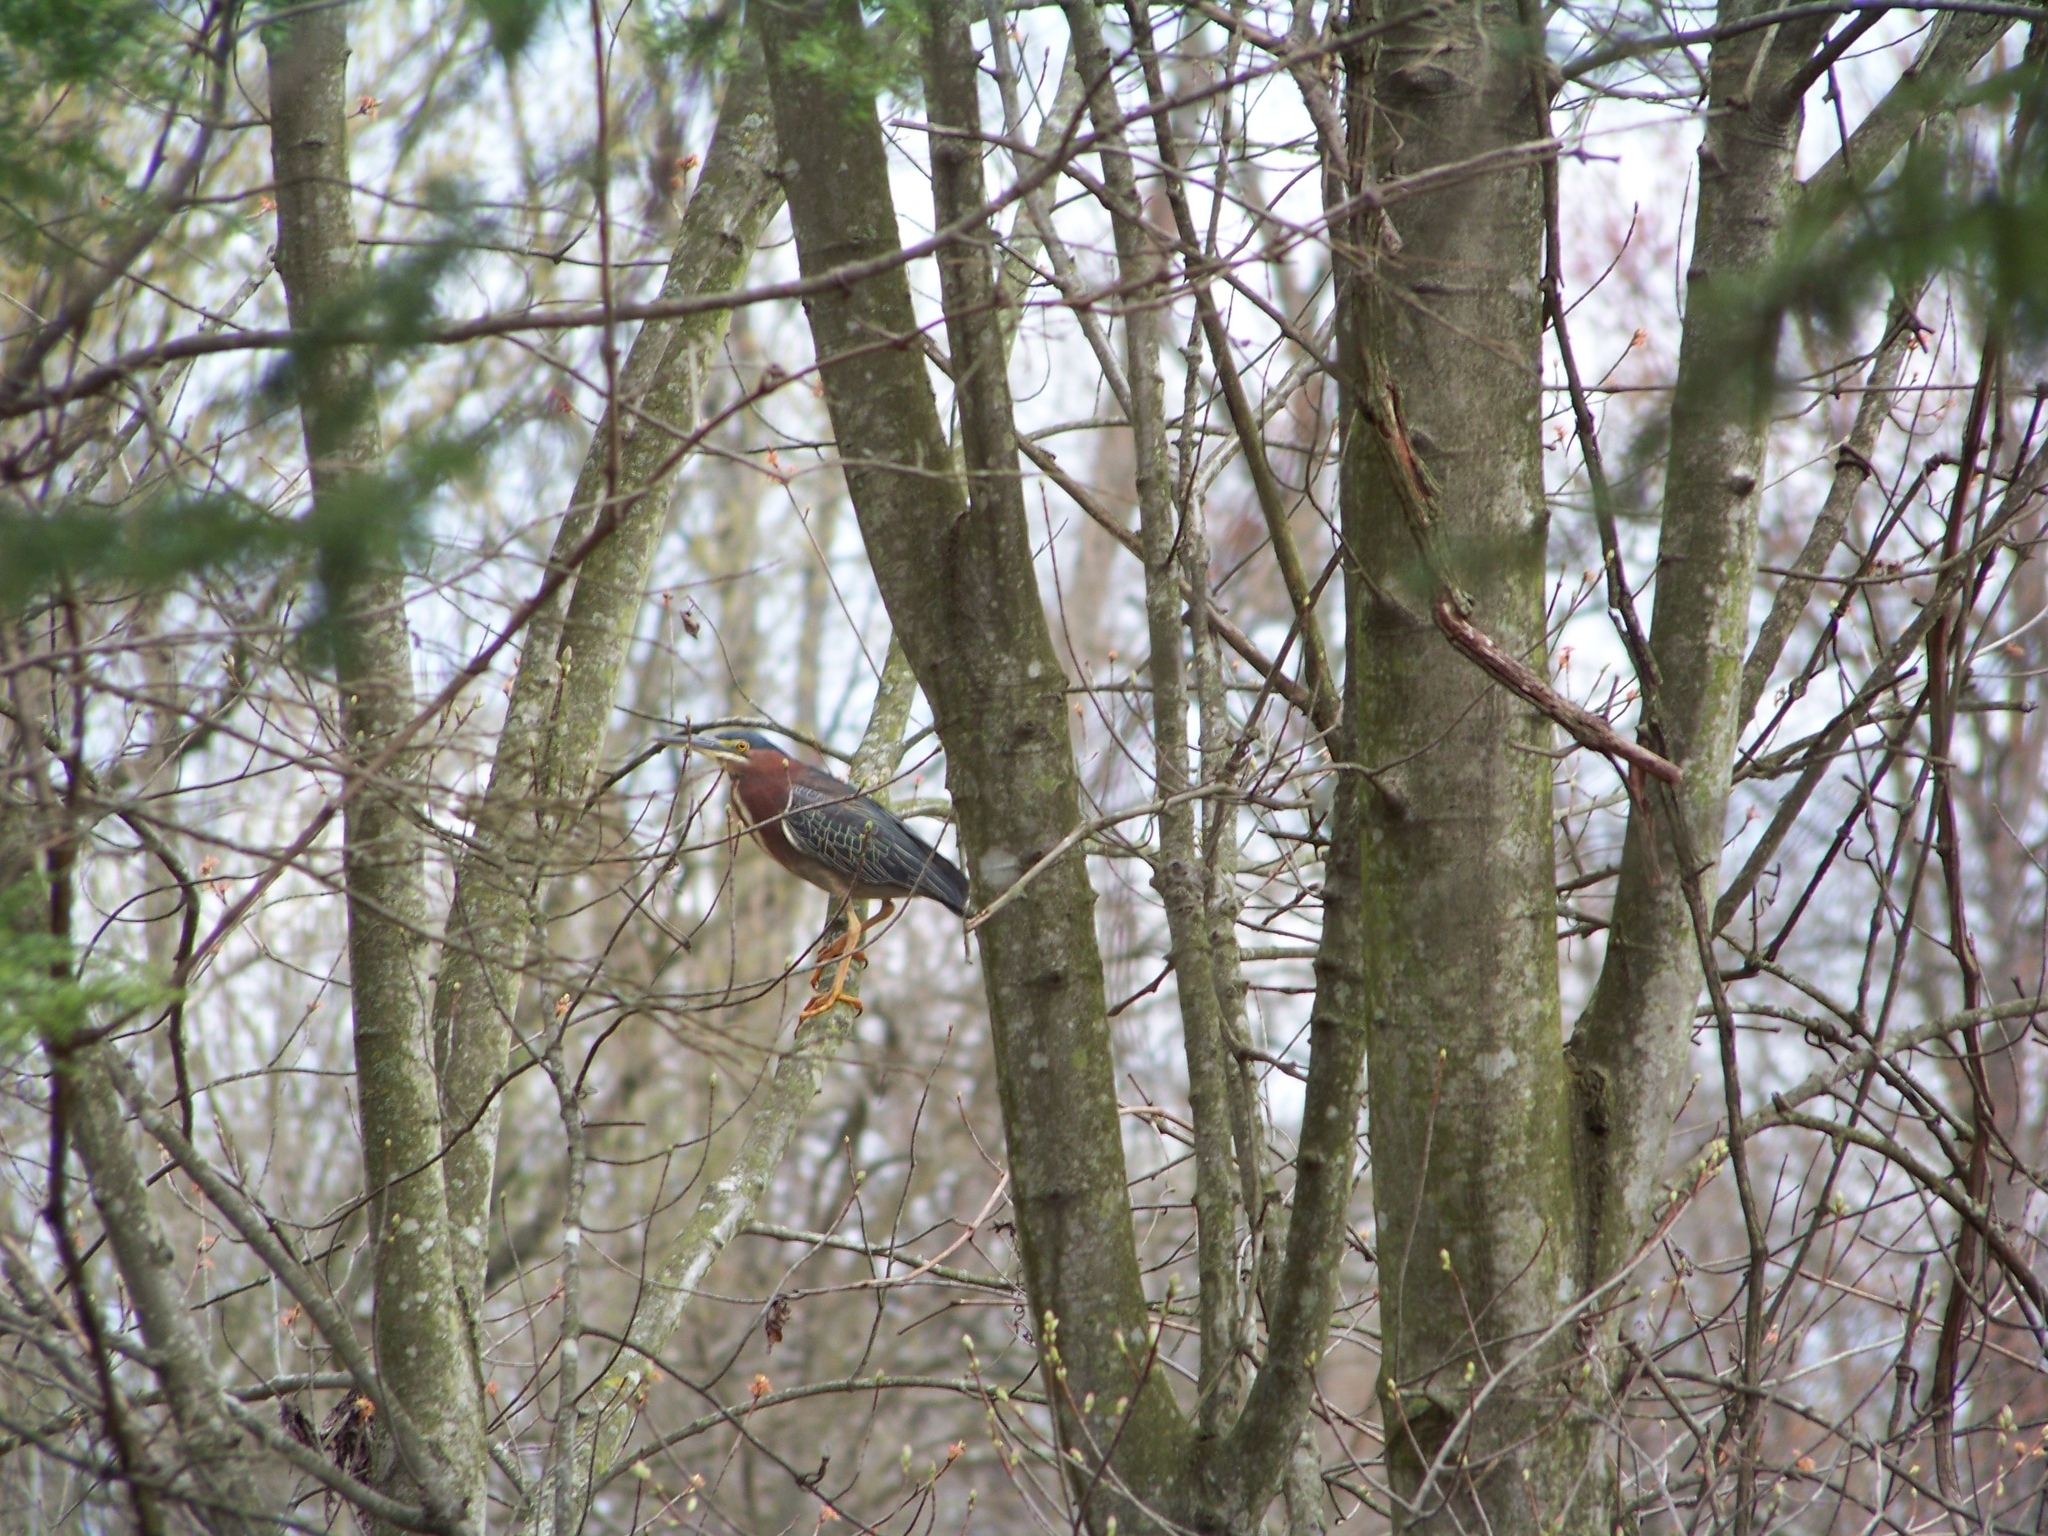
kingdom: Animalia
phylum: Chordata
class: Aves
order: Pelecaniformes
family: Ardeidae
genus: Butorides
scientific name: Butorides virescens
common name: Green heron
